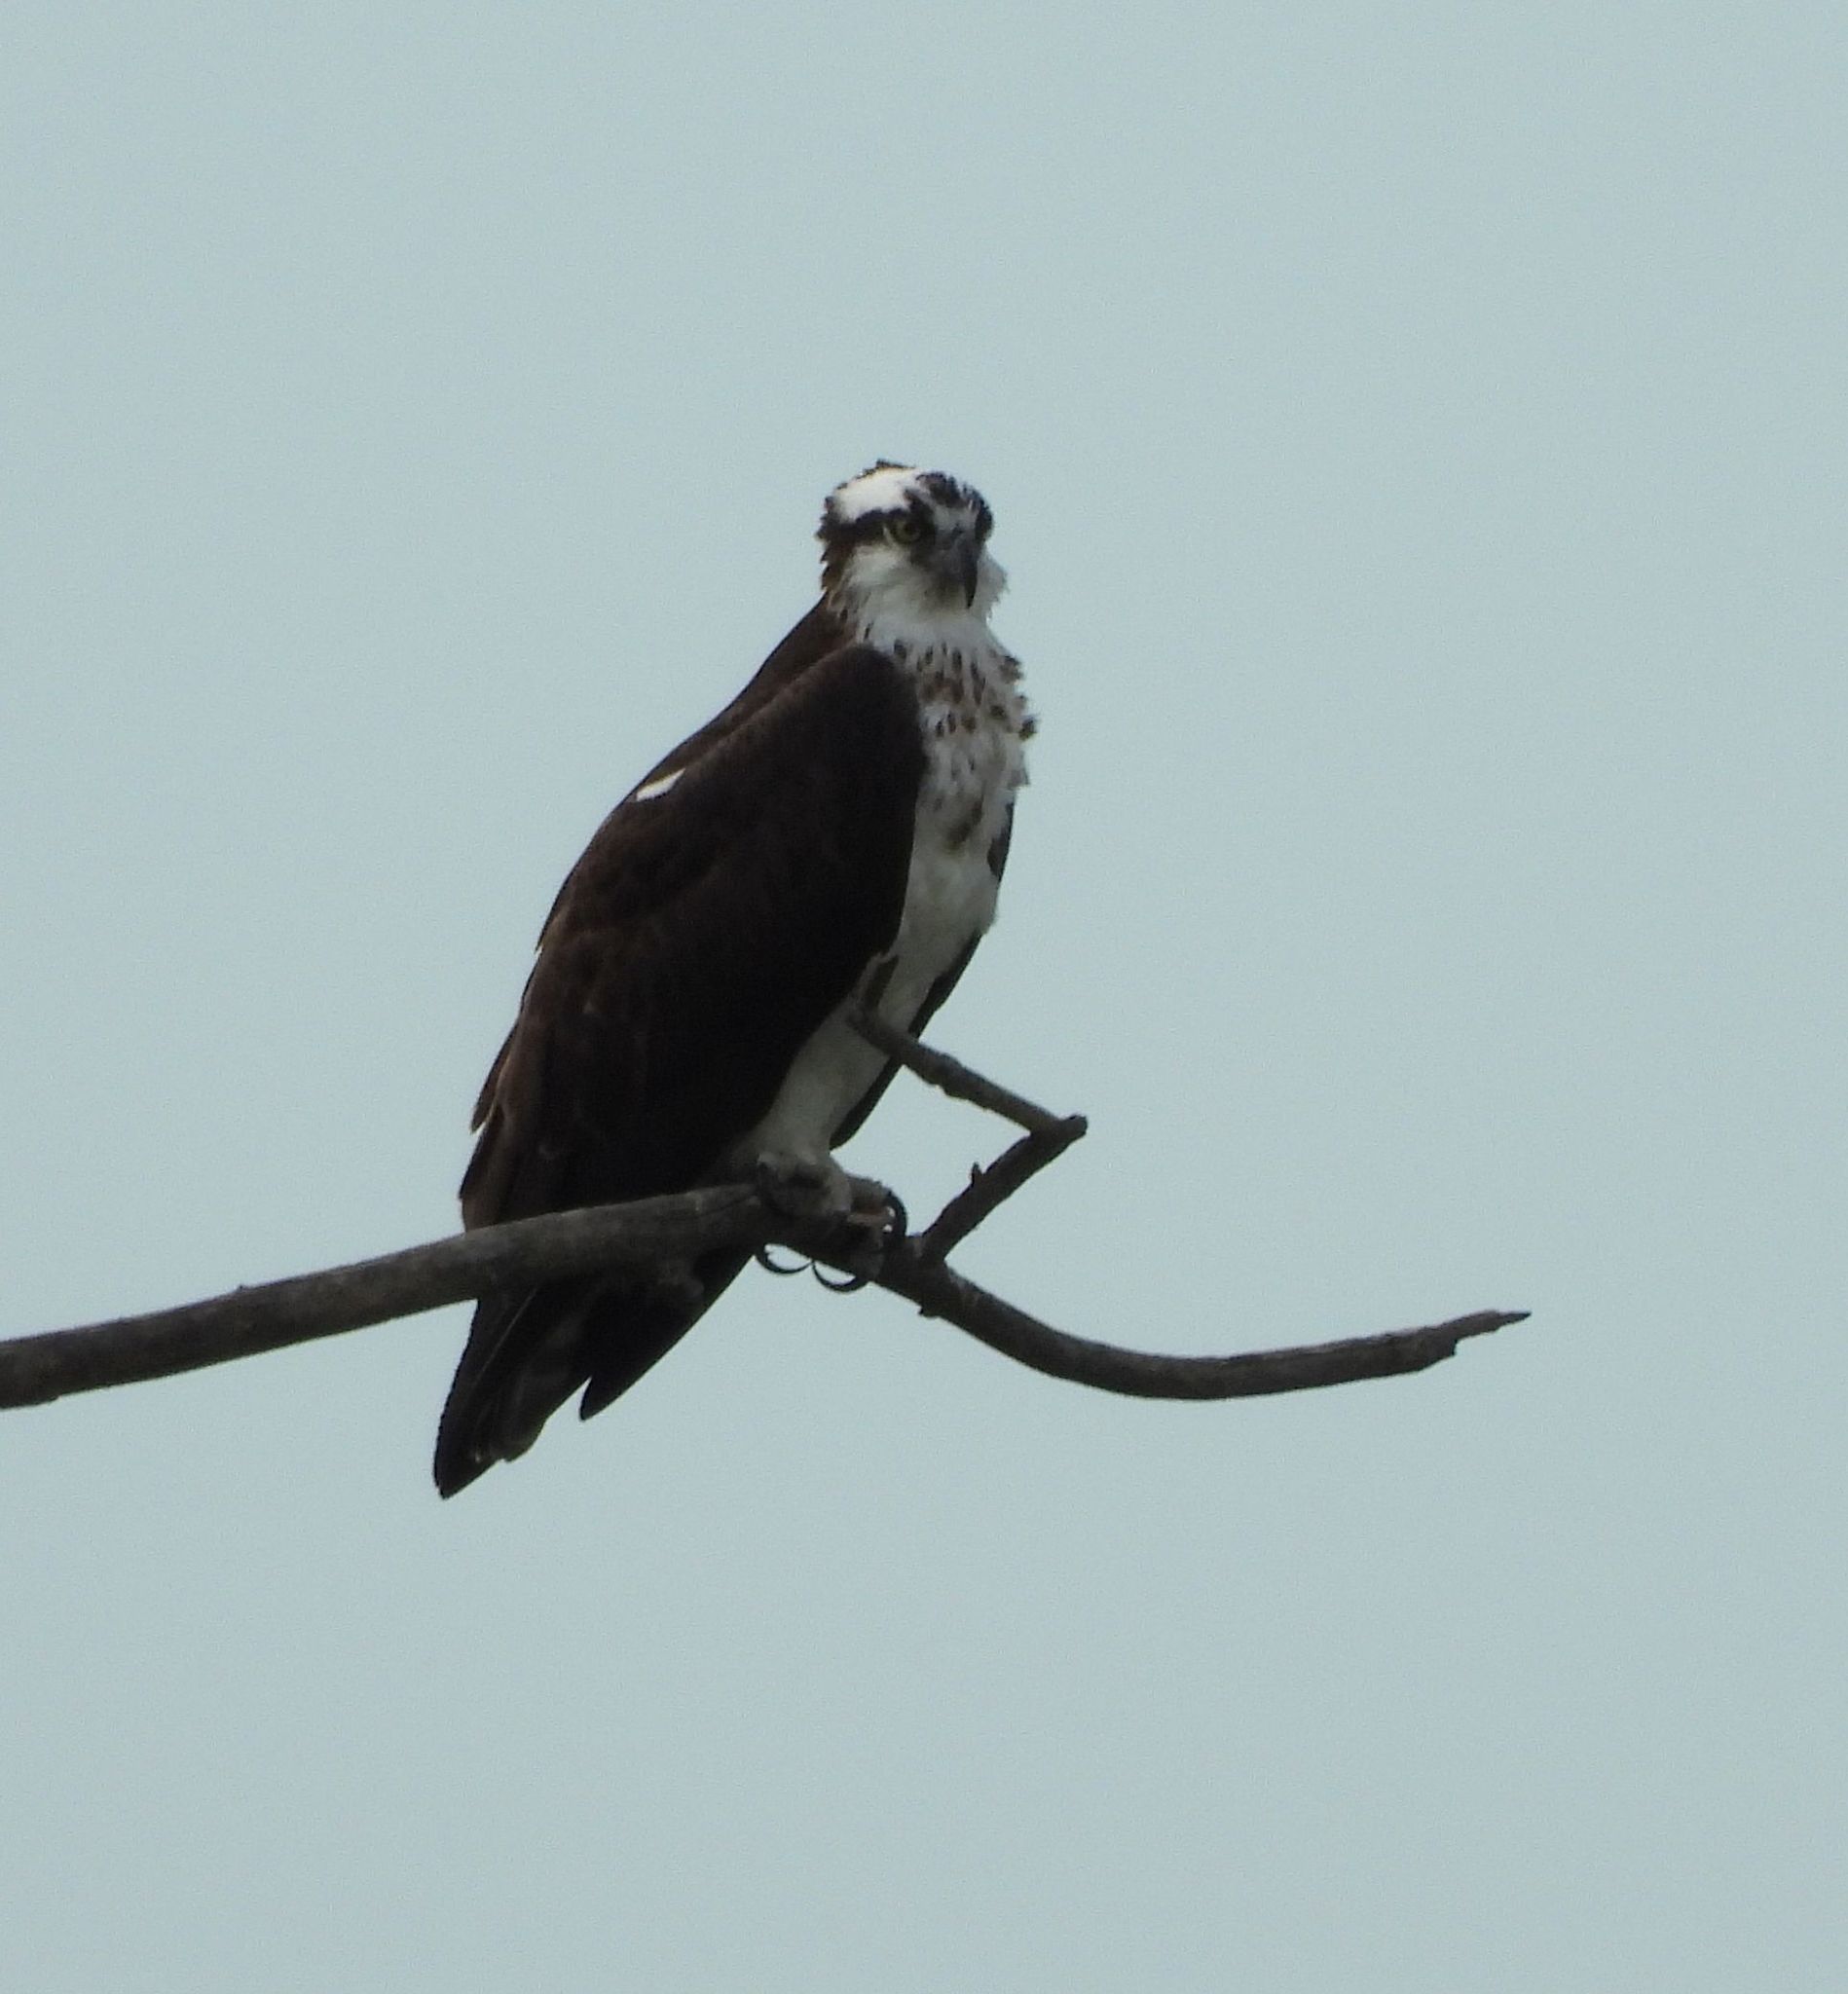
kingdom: Animalia
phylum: Chordata
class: Aves
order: Accipitriformes
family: Pandionidae
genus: Pandion
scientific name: Pandion haliaetus
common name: Osprey
